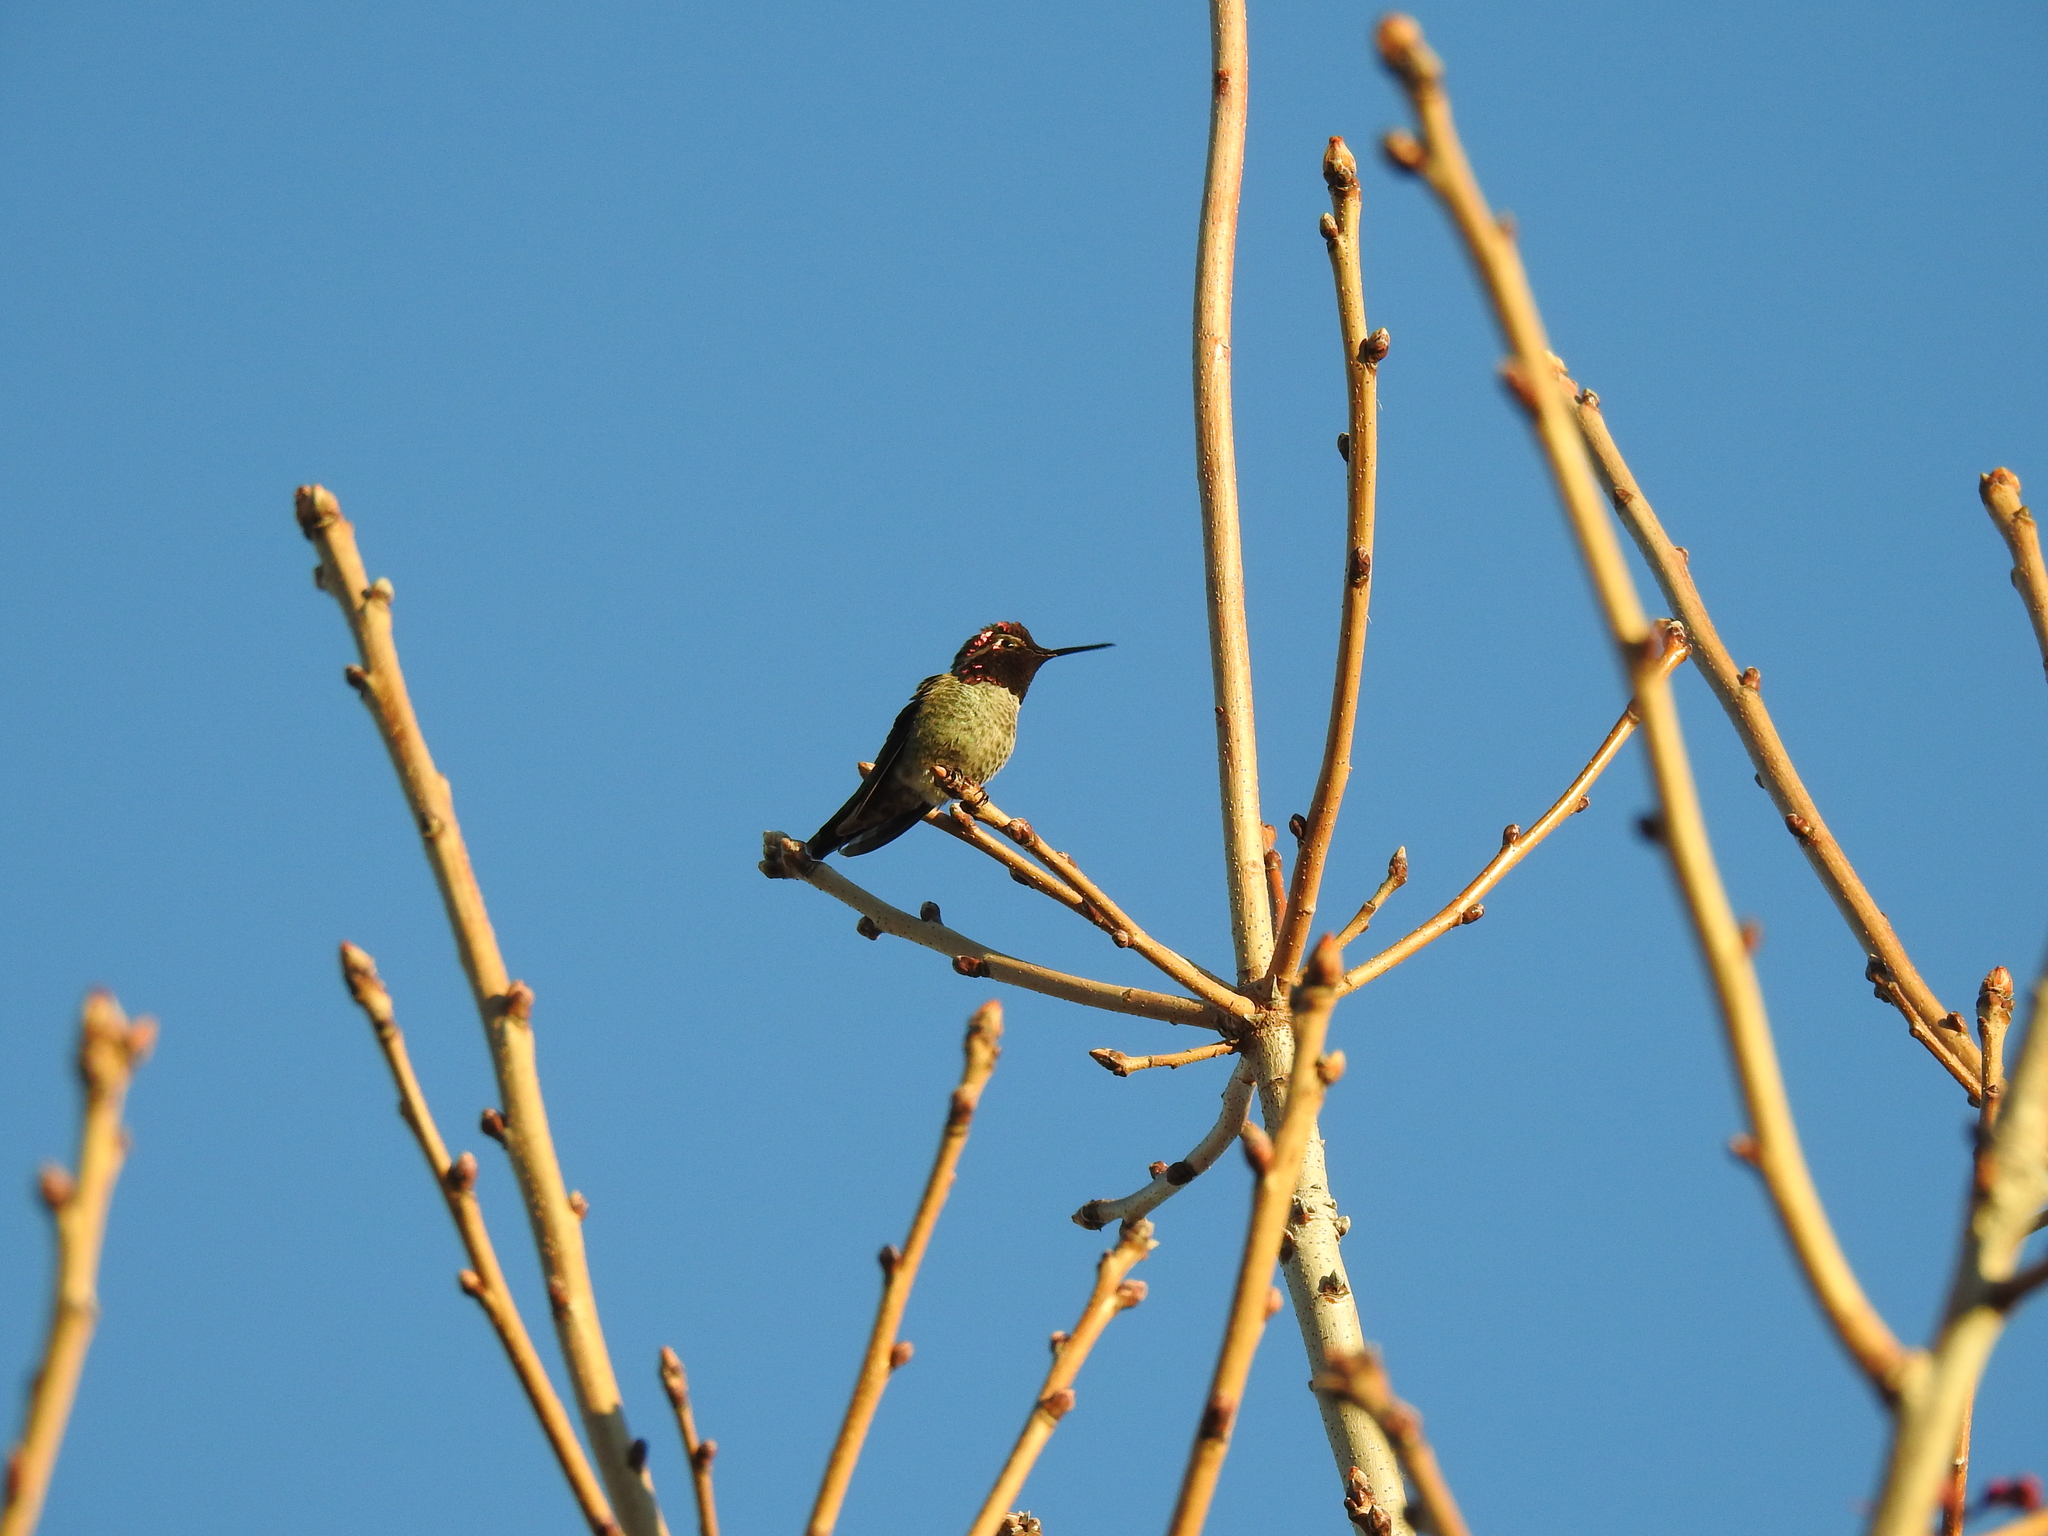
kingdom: Animalia
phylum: Chordata
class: Aves
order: Apodiformes
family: Trochilidae
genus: Calypte
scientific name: Calypte anna
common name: Anna's hummingbird
